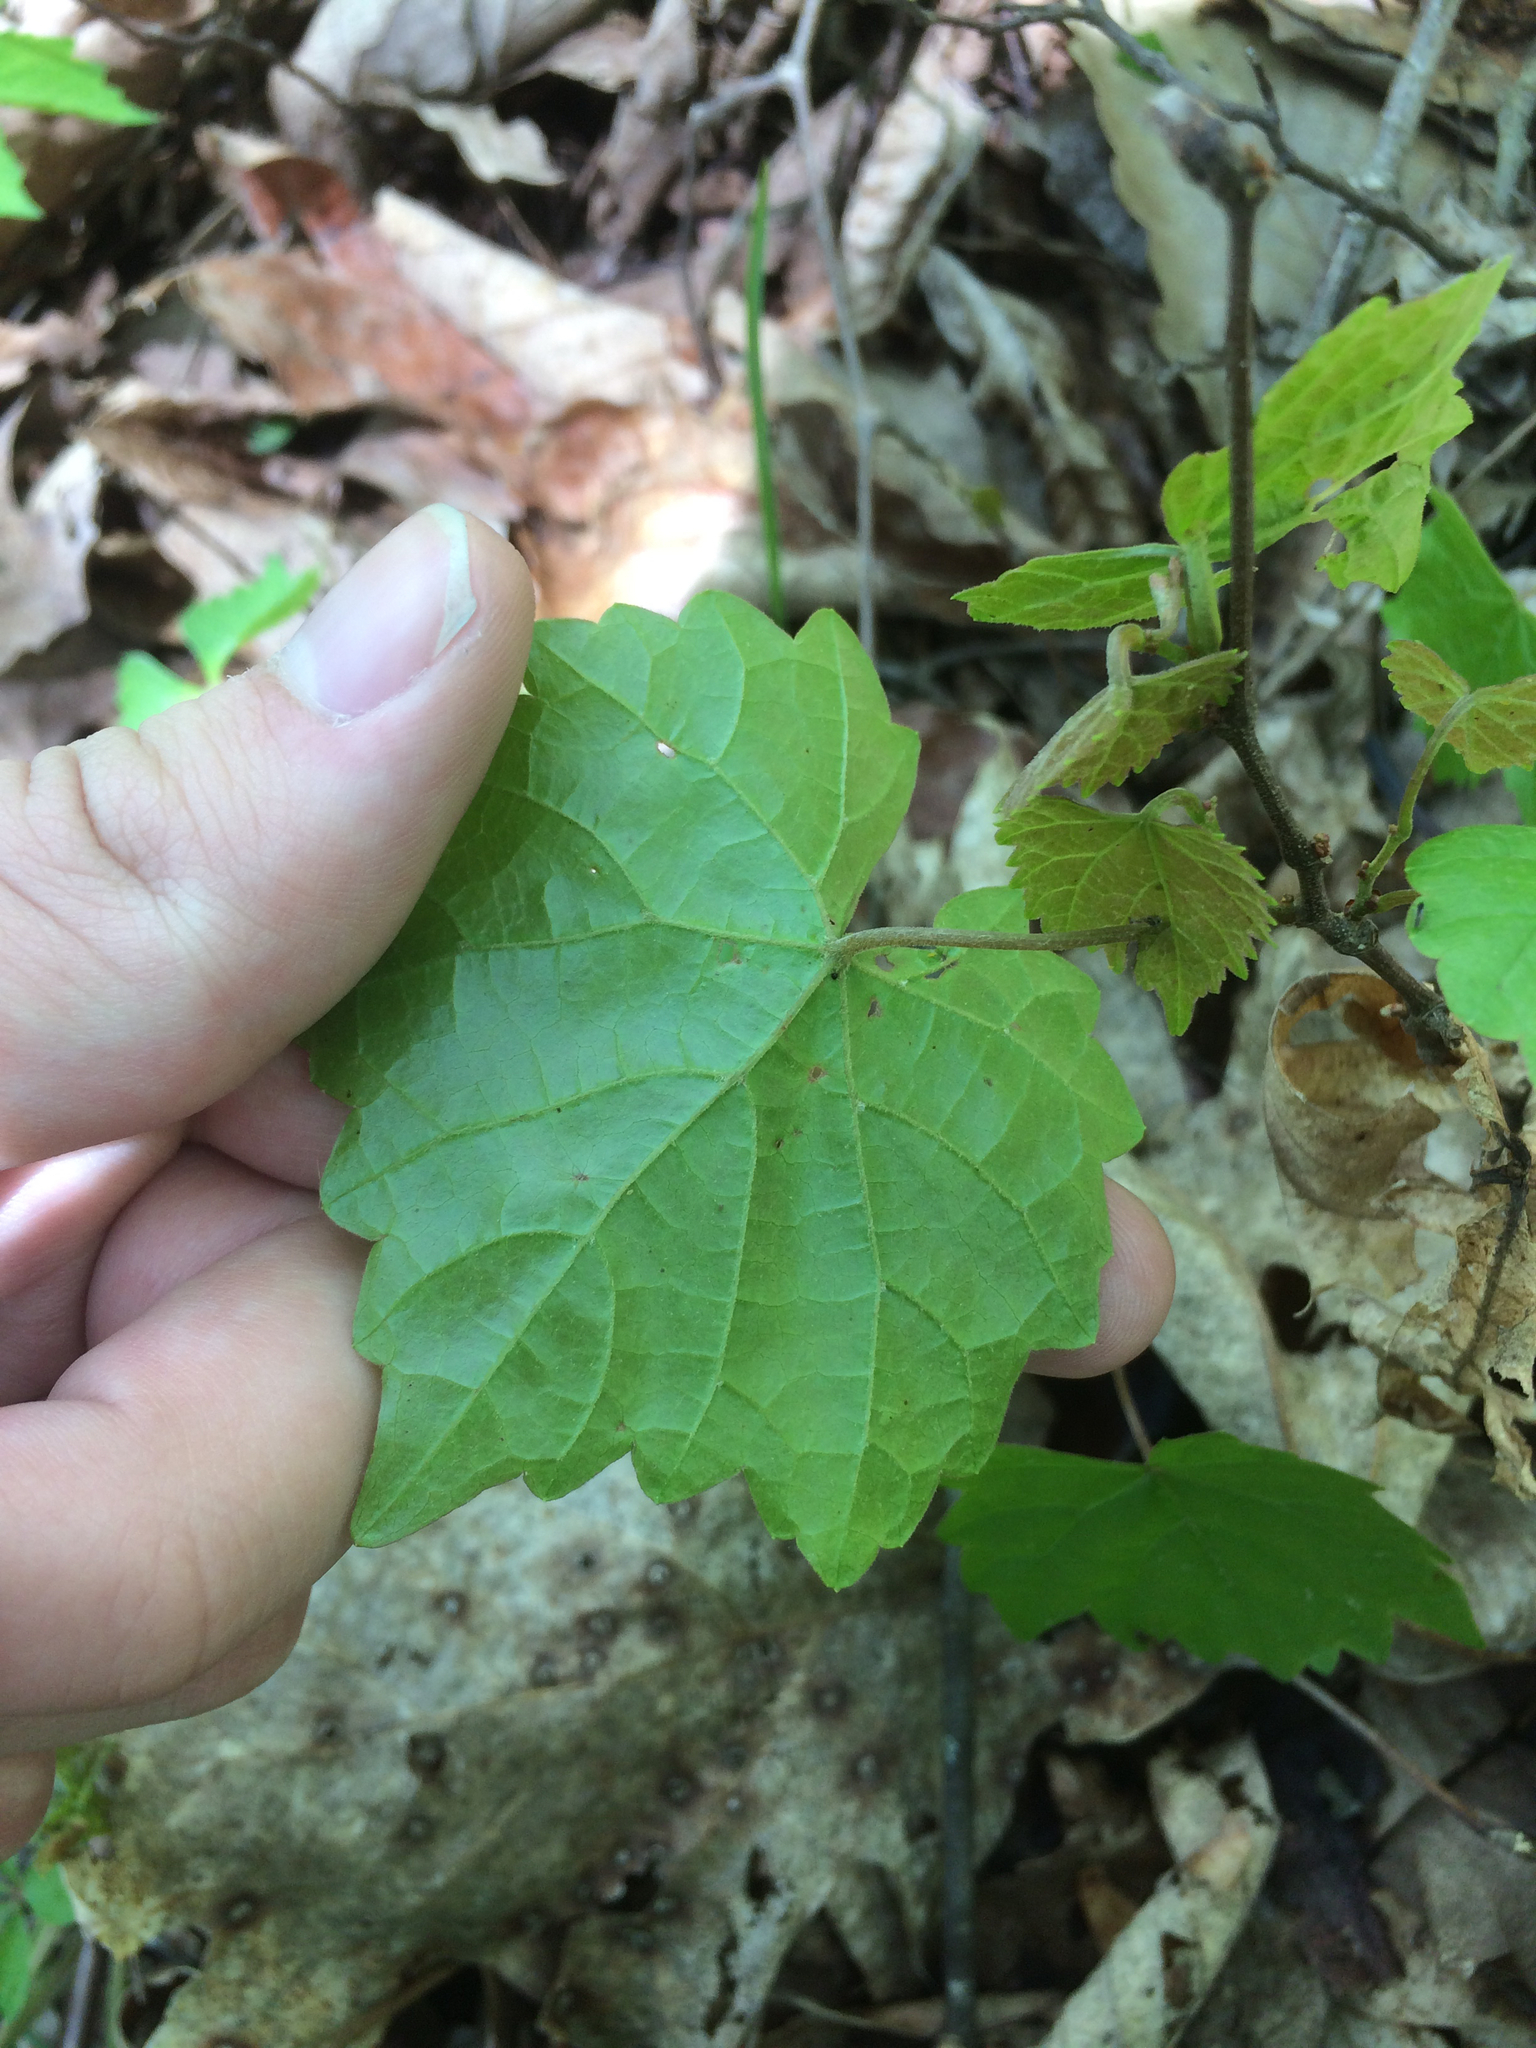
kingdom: Plantae
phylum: Tracheophyta
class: Magnoliopsida
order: Vitales
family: Vitaceae
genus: Vitis
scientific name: Vitis rotundifolia
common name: Muscadine grape
